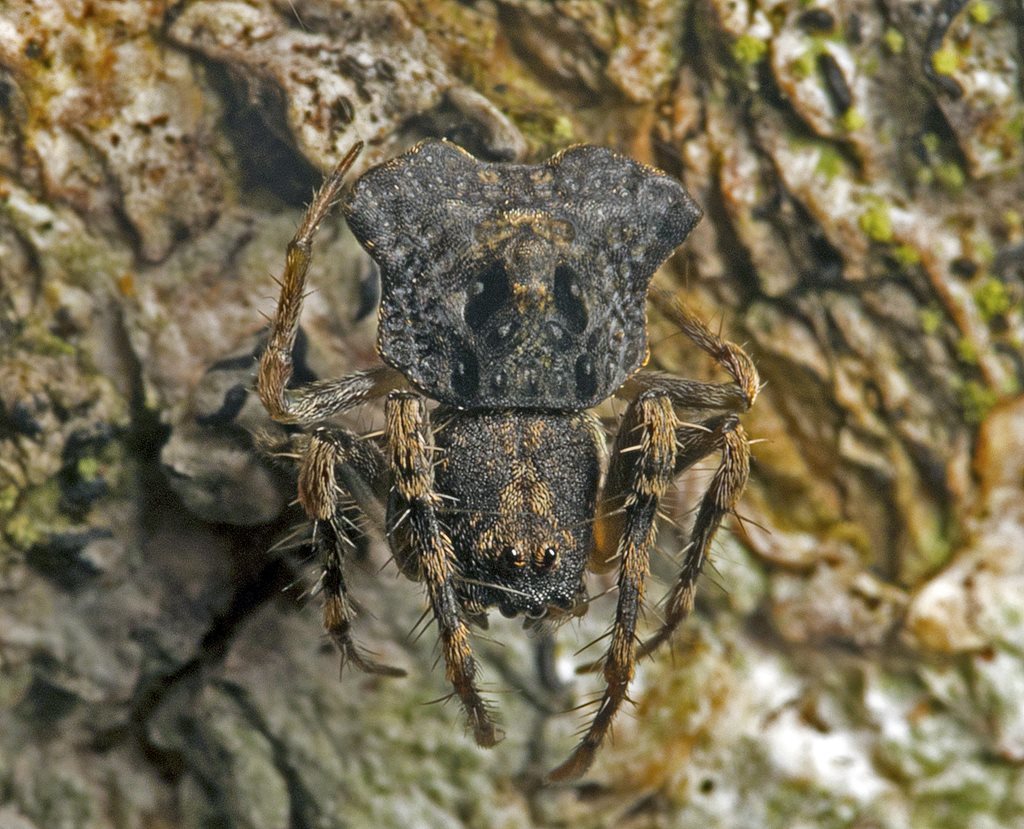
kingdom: Animalia
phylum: Arthropoda
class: Arachnida
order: Araneae
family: Arkyidae
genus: Arkys
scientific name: Arkys dilatatus
